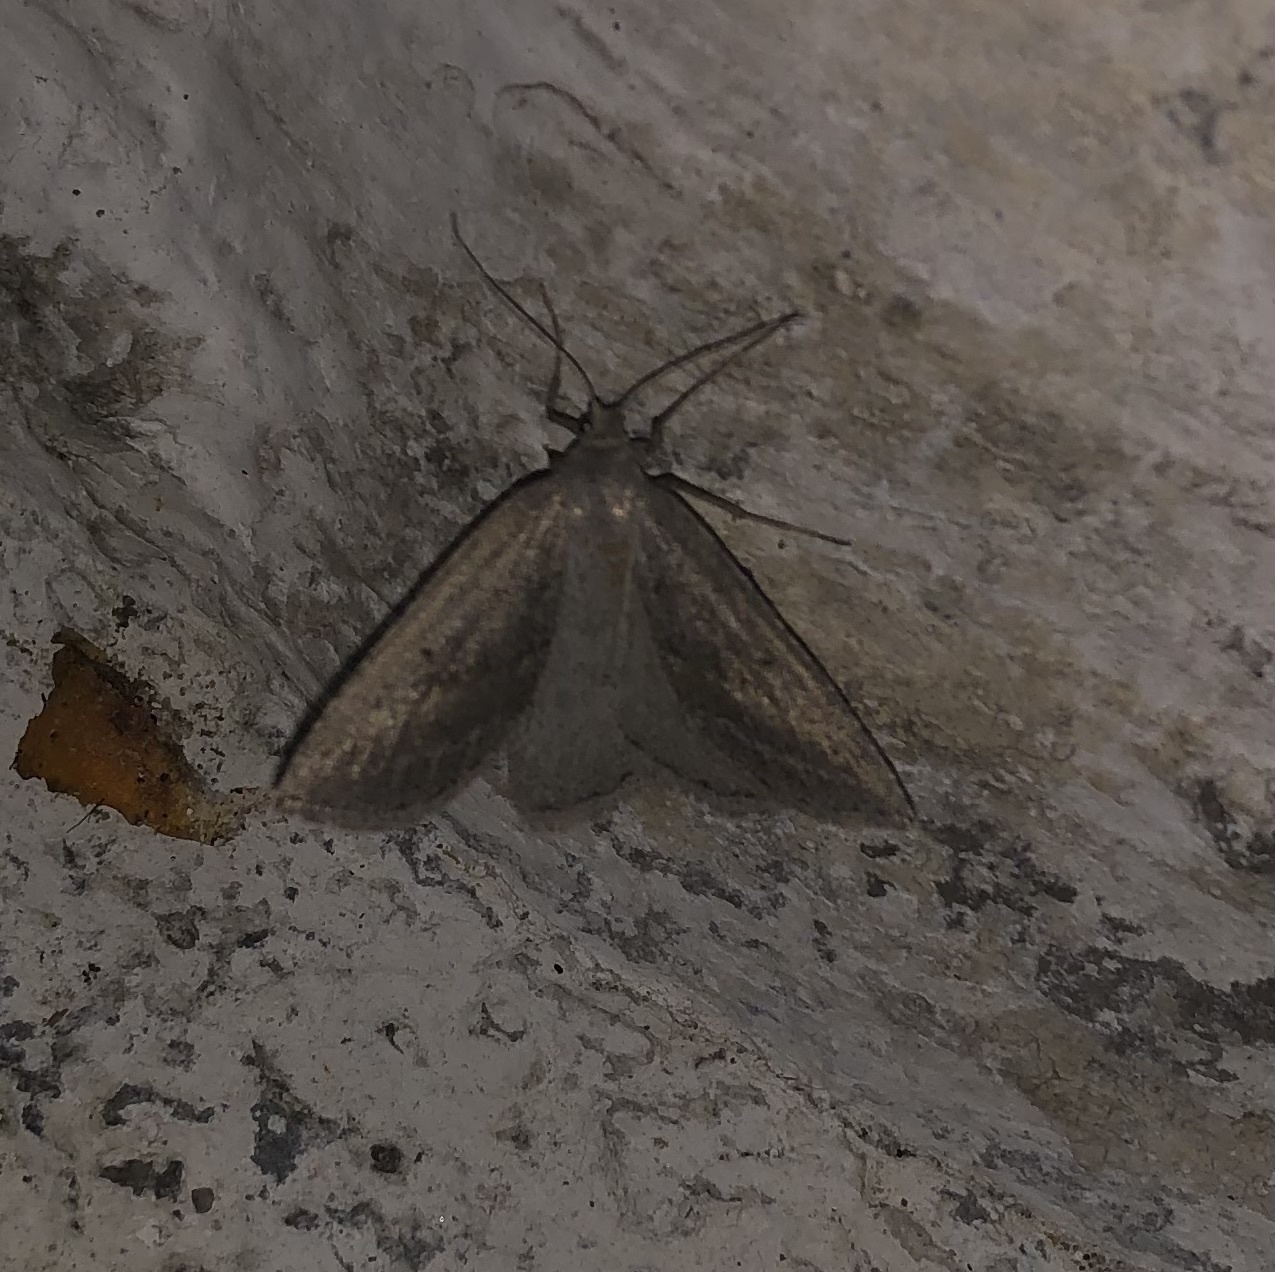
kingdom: Animalia
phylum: Arthropoda
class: Insecta
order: Lepidoptera
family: Geometridae
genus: Chemerina
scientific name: Chemerina caliginearia
